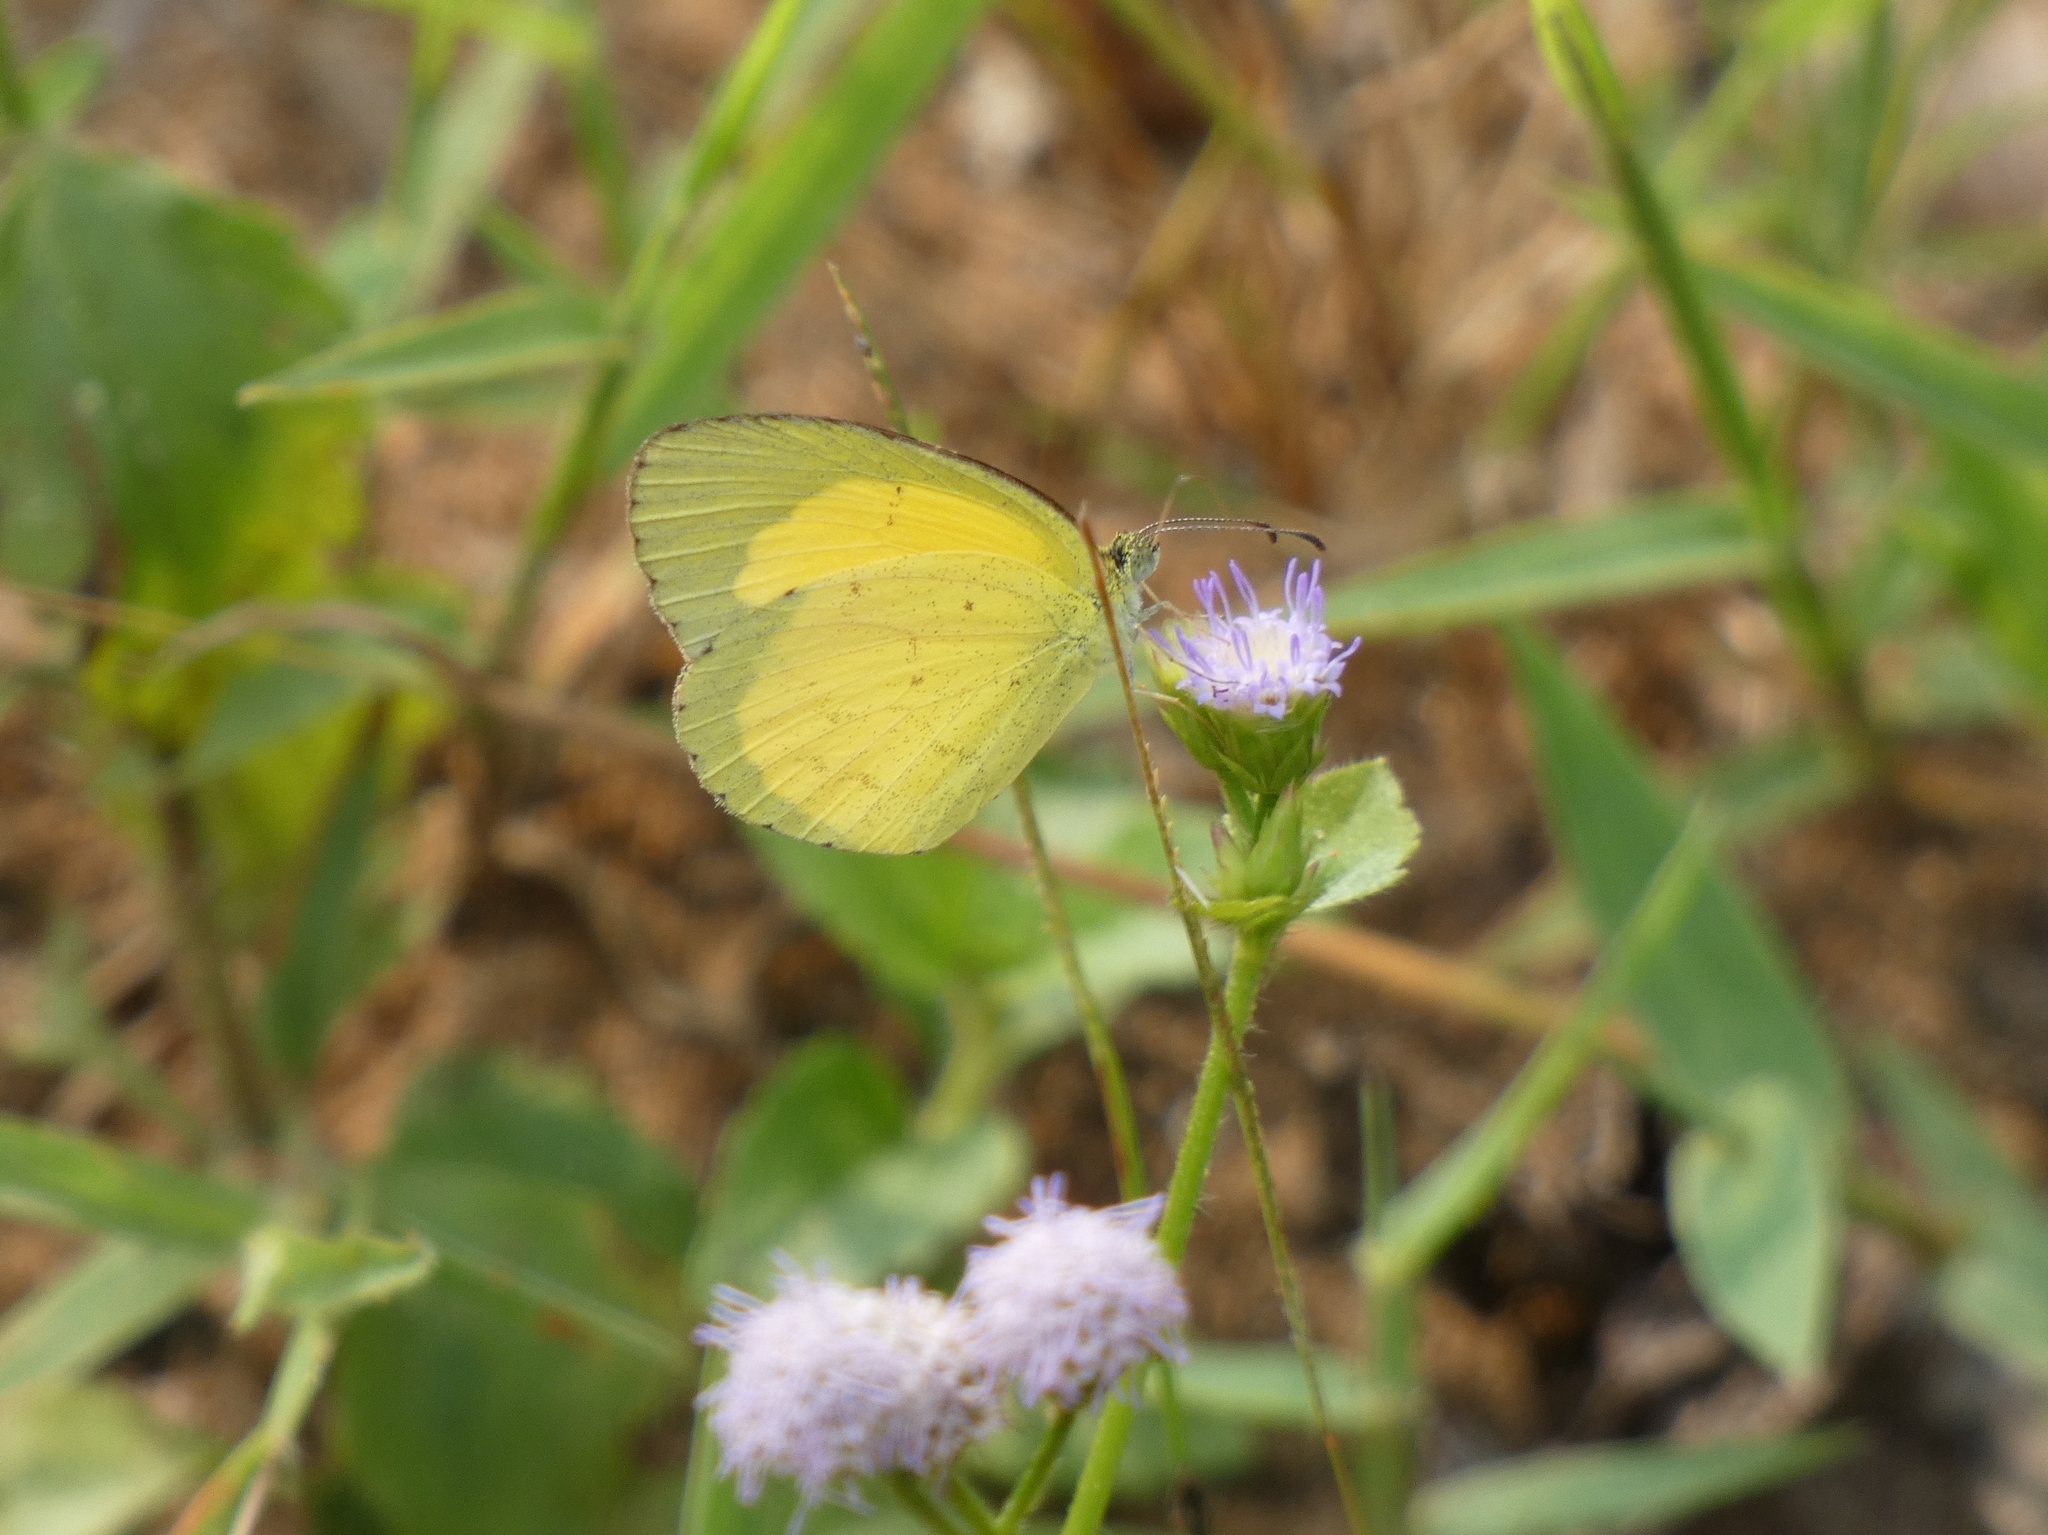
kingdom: Animalia
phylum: Arthropoda
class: Insecta
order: Lepidoptera
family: Pieridae
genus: Eurema
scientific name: Eurema brigitta
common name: Small grass yellow
